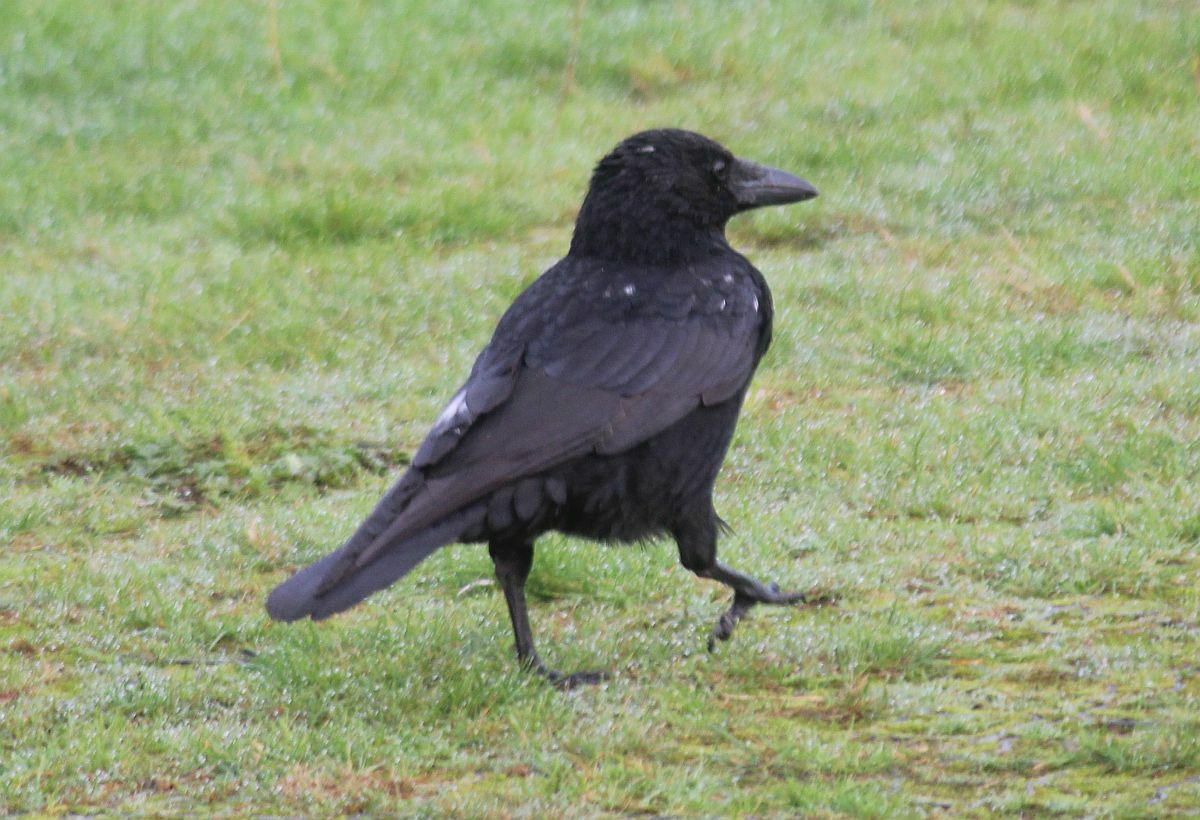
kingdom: Animalia
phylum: Chordata
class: Aves
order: Passeriformes
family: Corvidae
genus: Corvus
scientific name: Corvus corone
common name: Carrion crow
